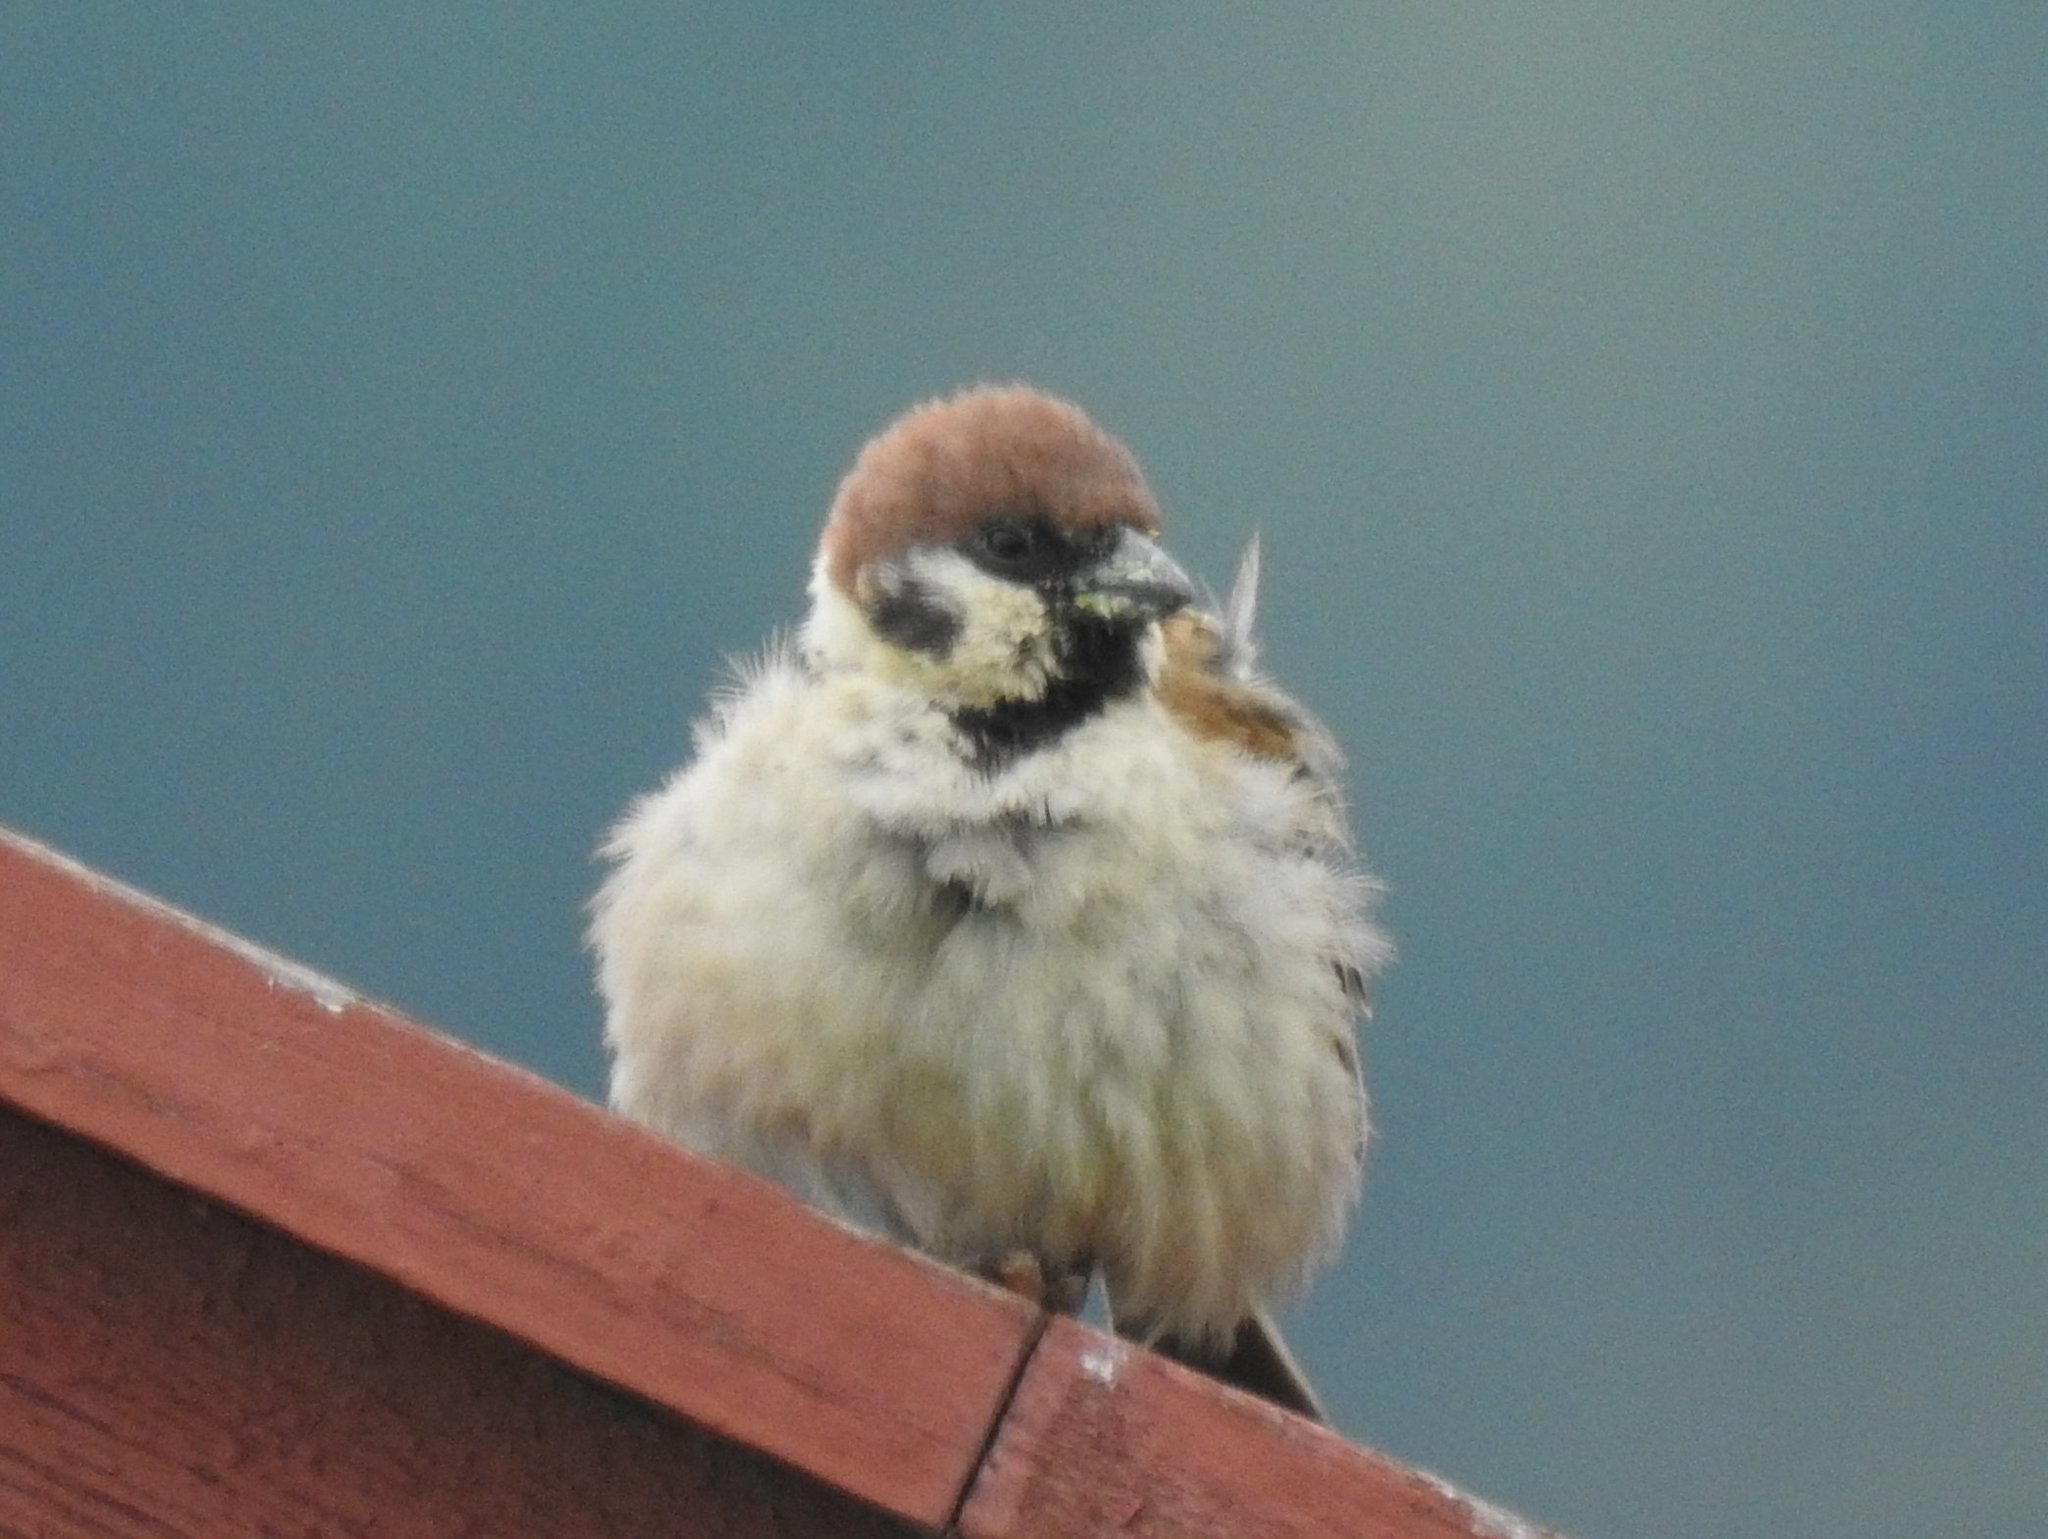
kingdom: Animalia
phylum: Chordata
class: Aves
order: Passeriformes
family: Passeridae
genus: Passer
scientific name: Passer montanus
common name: Eurasian tree sparrow
